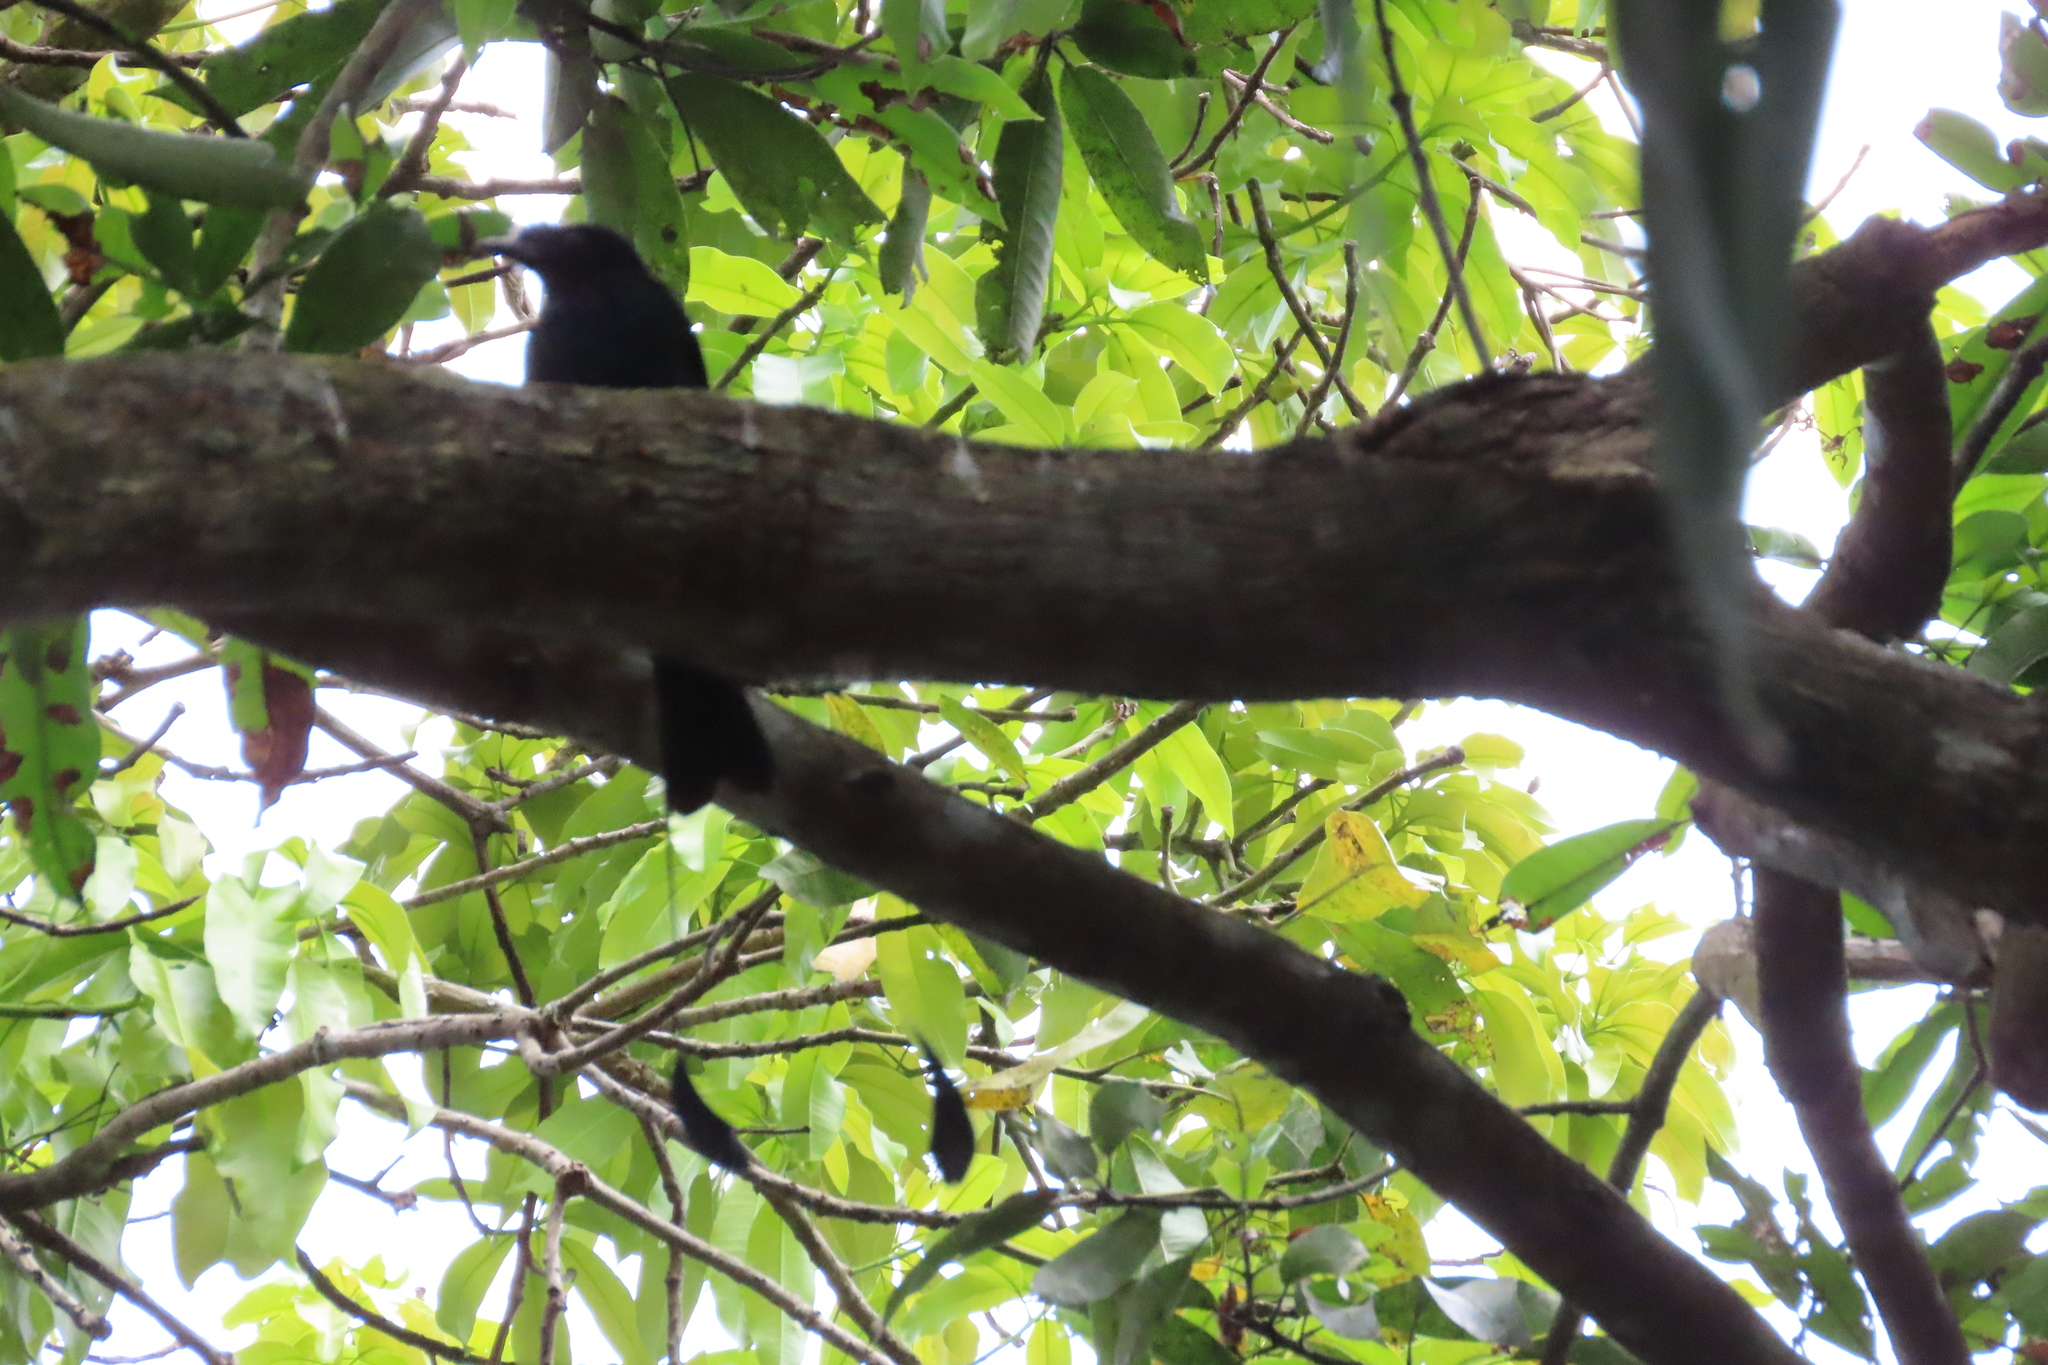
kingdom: Animalia
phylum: Chordata
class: Aves
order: Passeriformes
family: Dicruridae
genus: Dicrurus
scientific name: Dicrurus paradiseus
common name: Greater racket-tailed drongo
